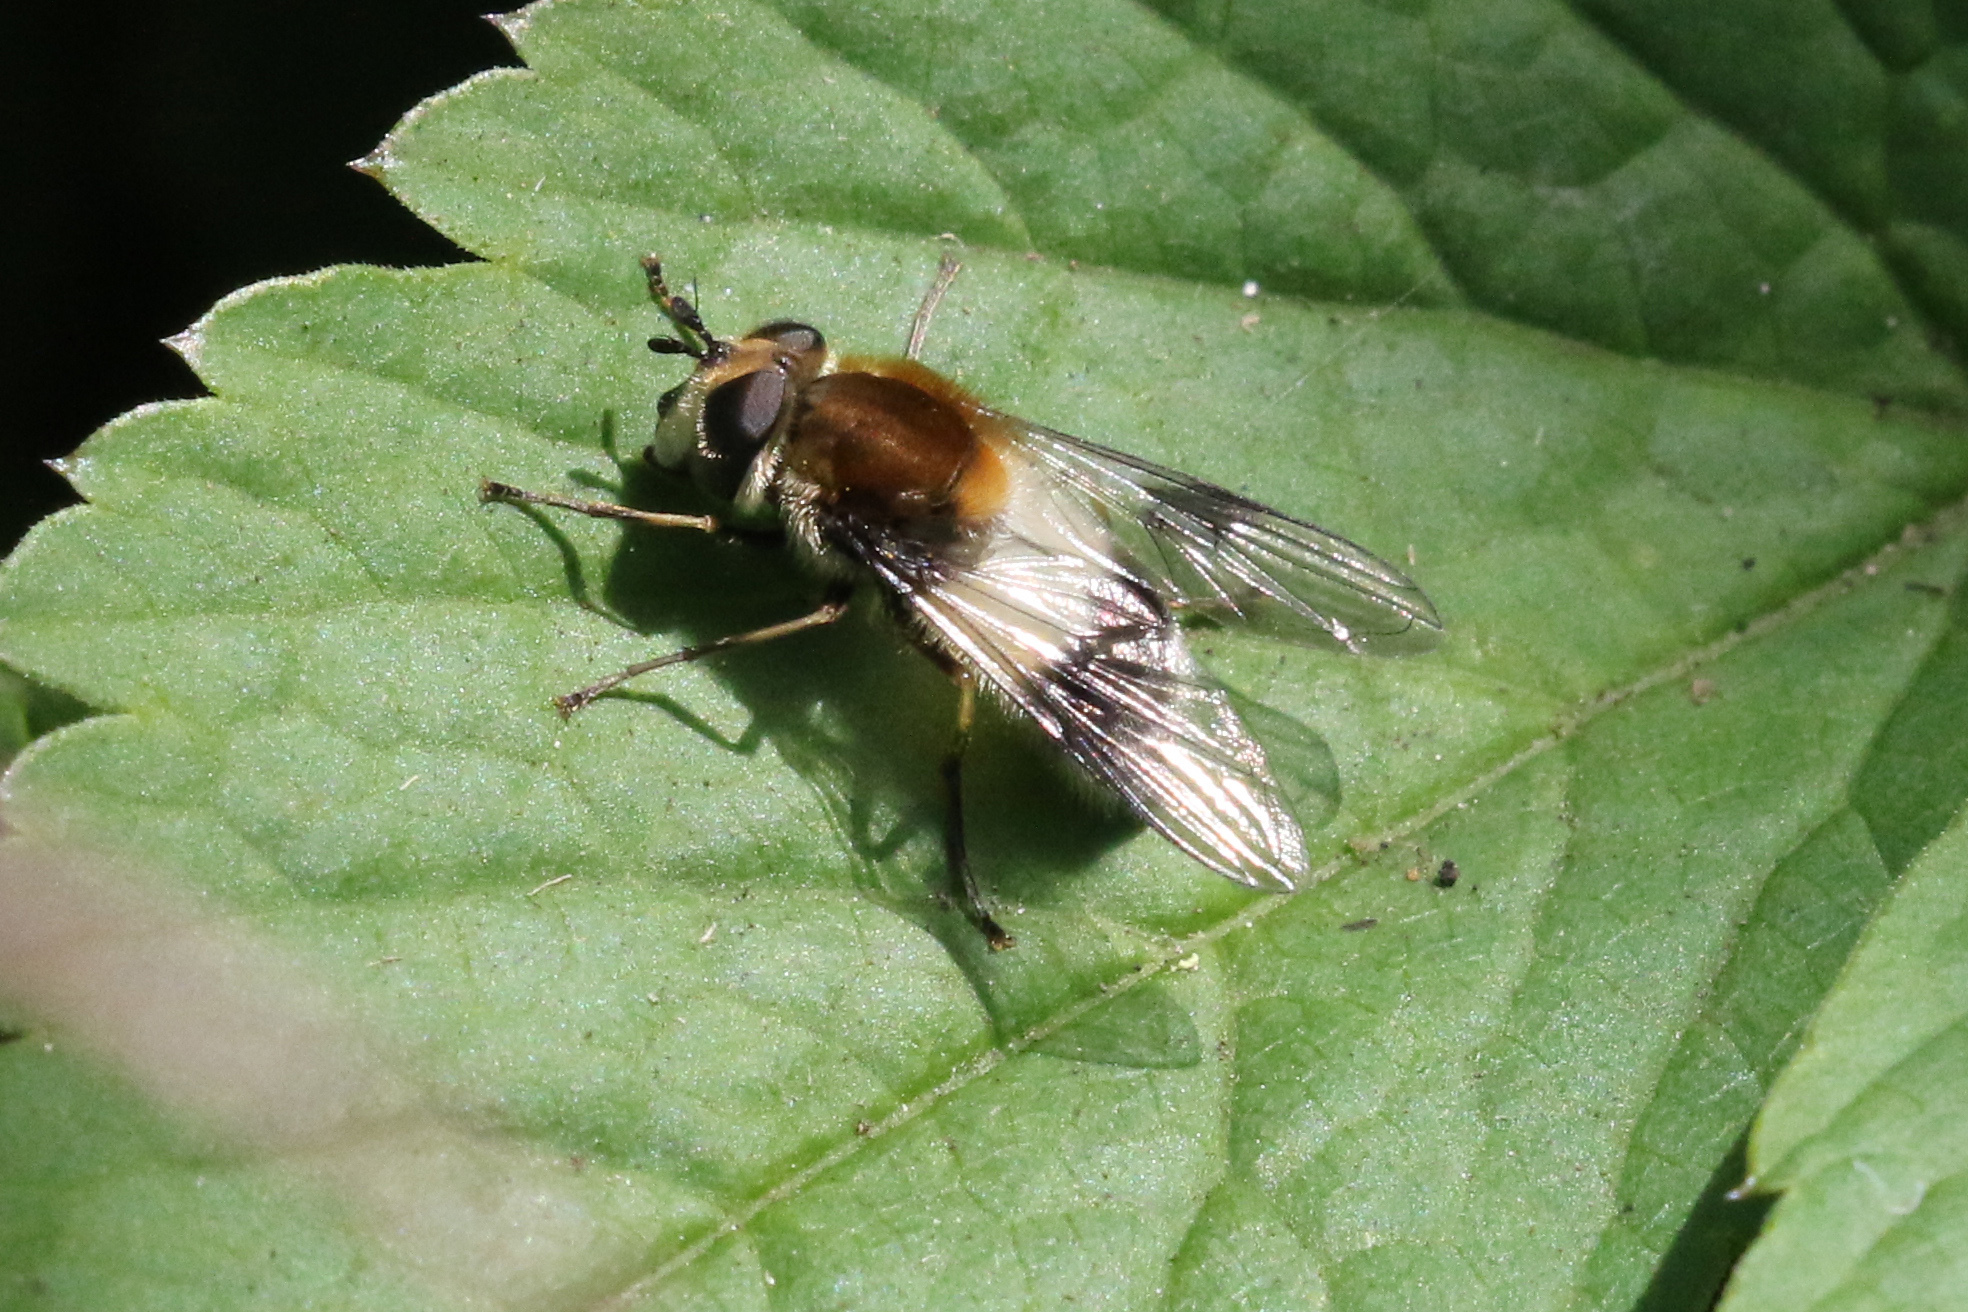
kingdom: Animalia
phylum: Arthropoda
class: Insecta
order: Diptera
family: Syrphidae
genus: Leucozona
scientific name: Leucozona lucorum
